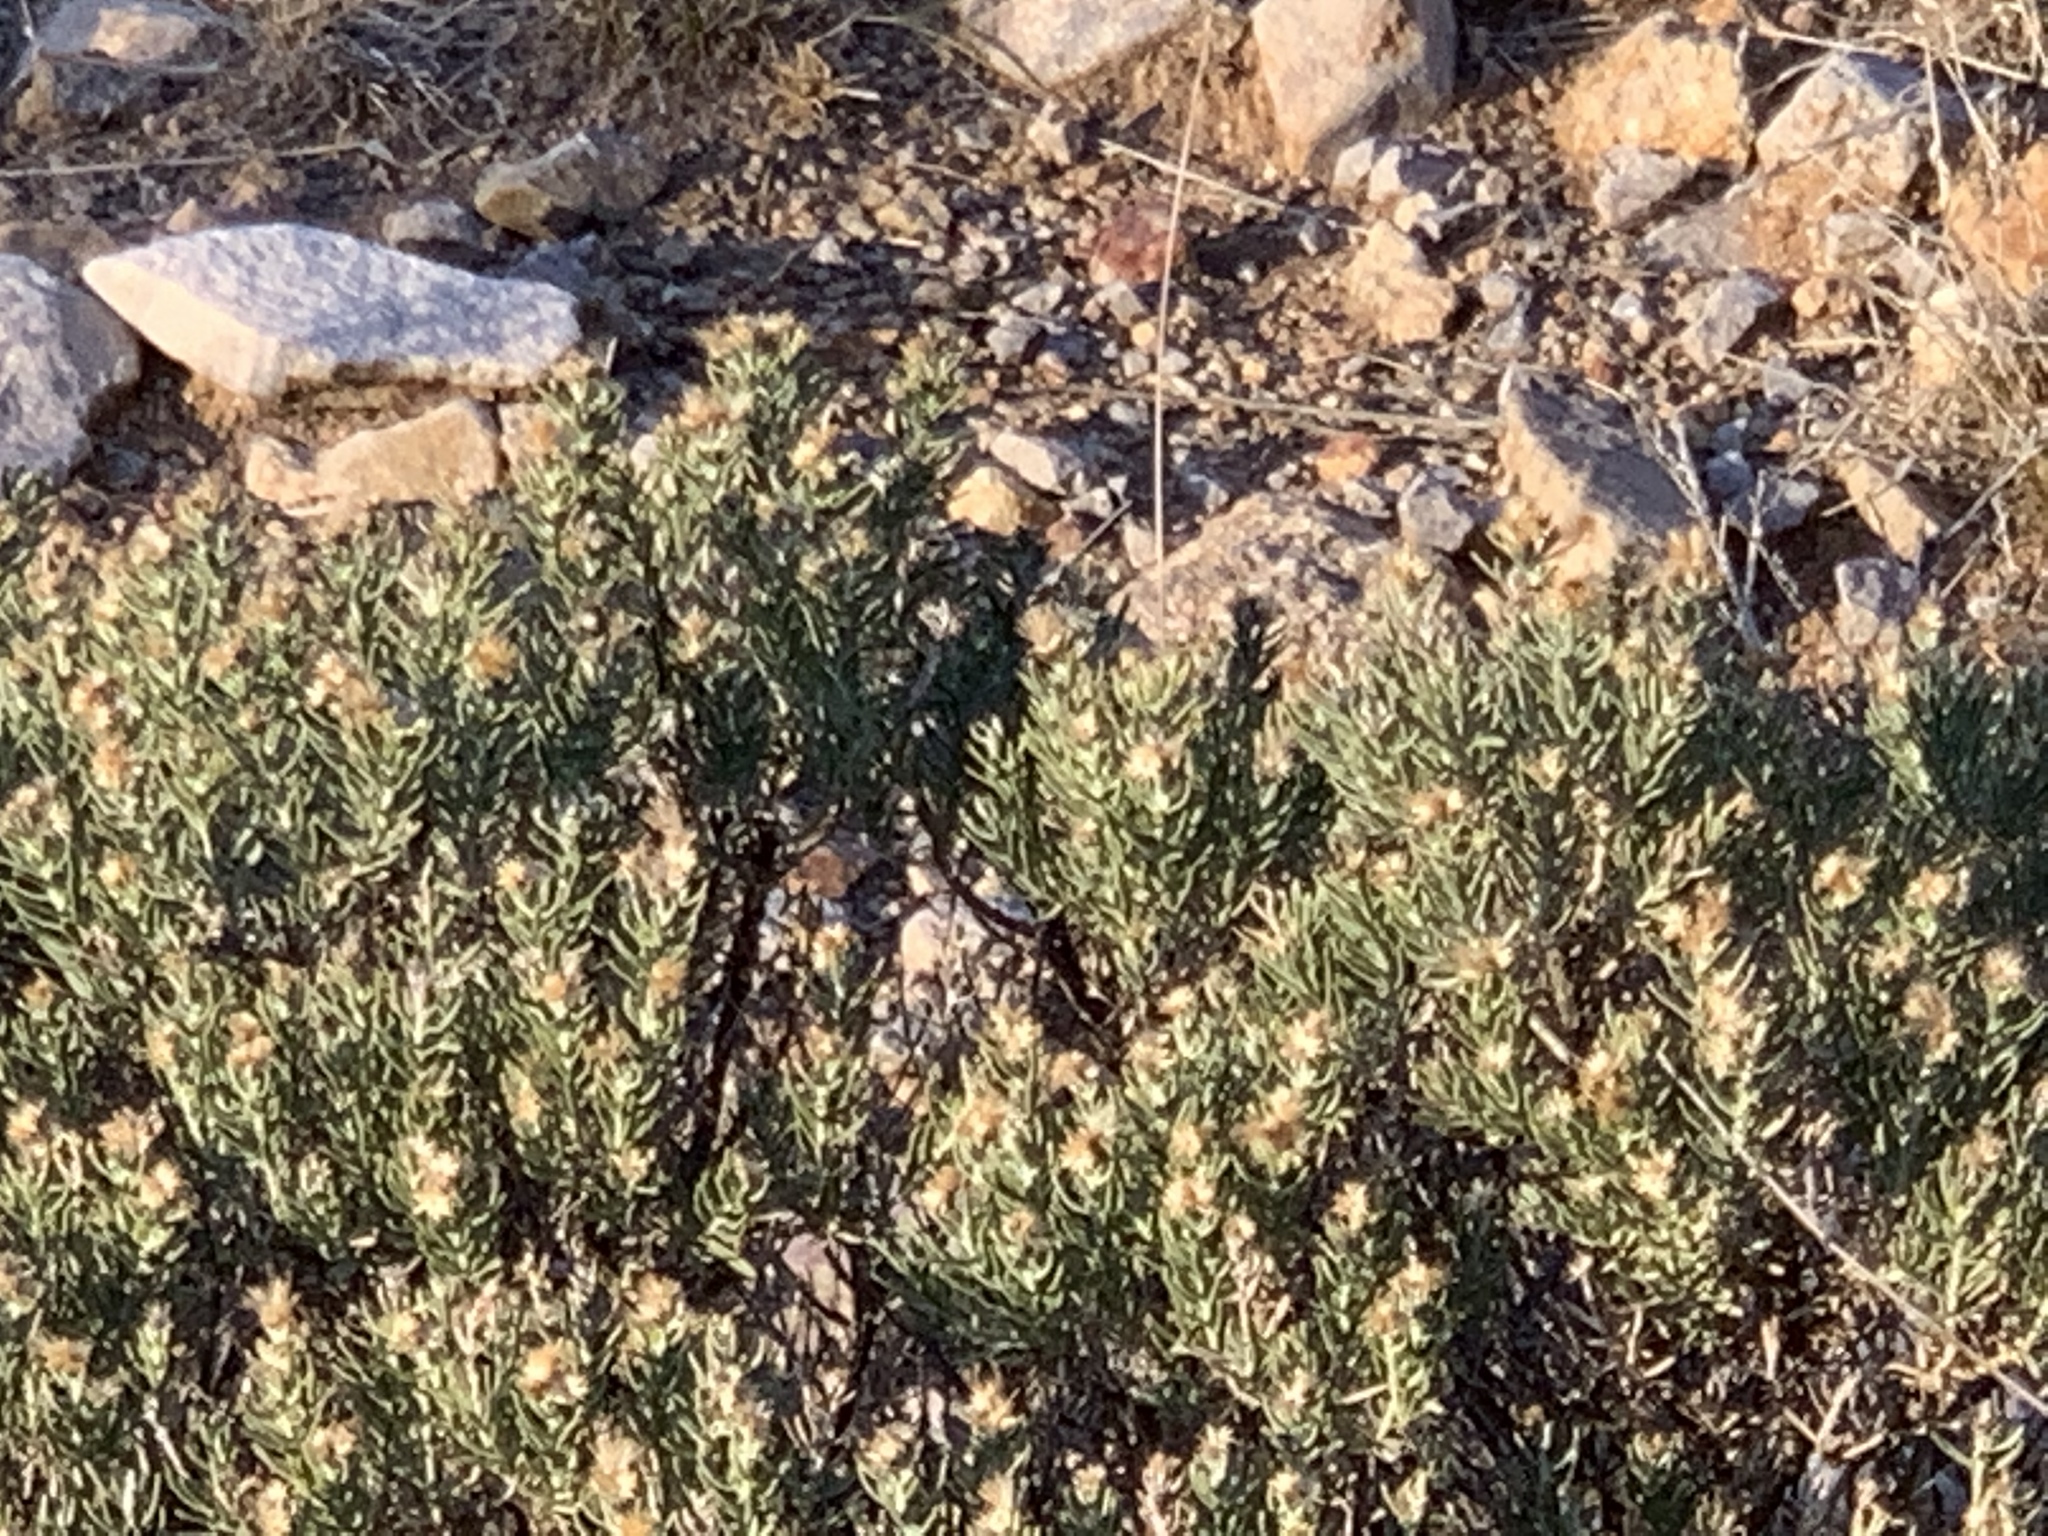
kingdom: Plantae
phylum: Tracheophyta
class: Magnoliopsida
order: Asterales
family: Asteraceae
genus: Ericameria
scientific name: Ericameria laricifolia
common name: Turpentine-bush
